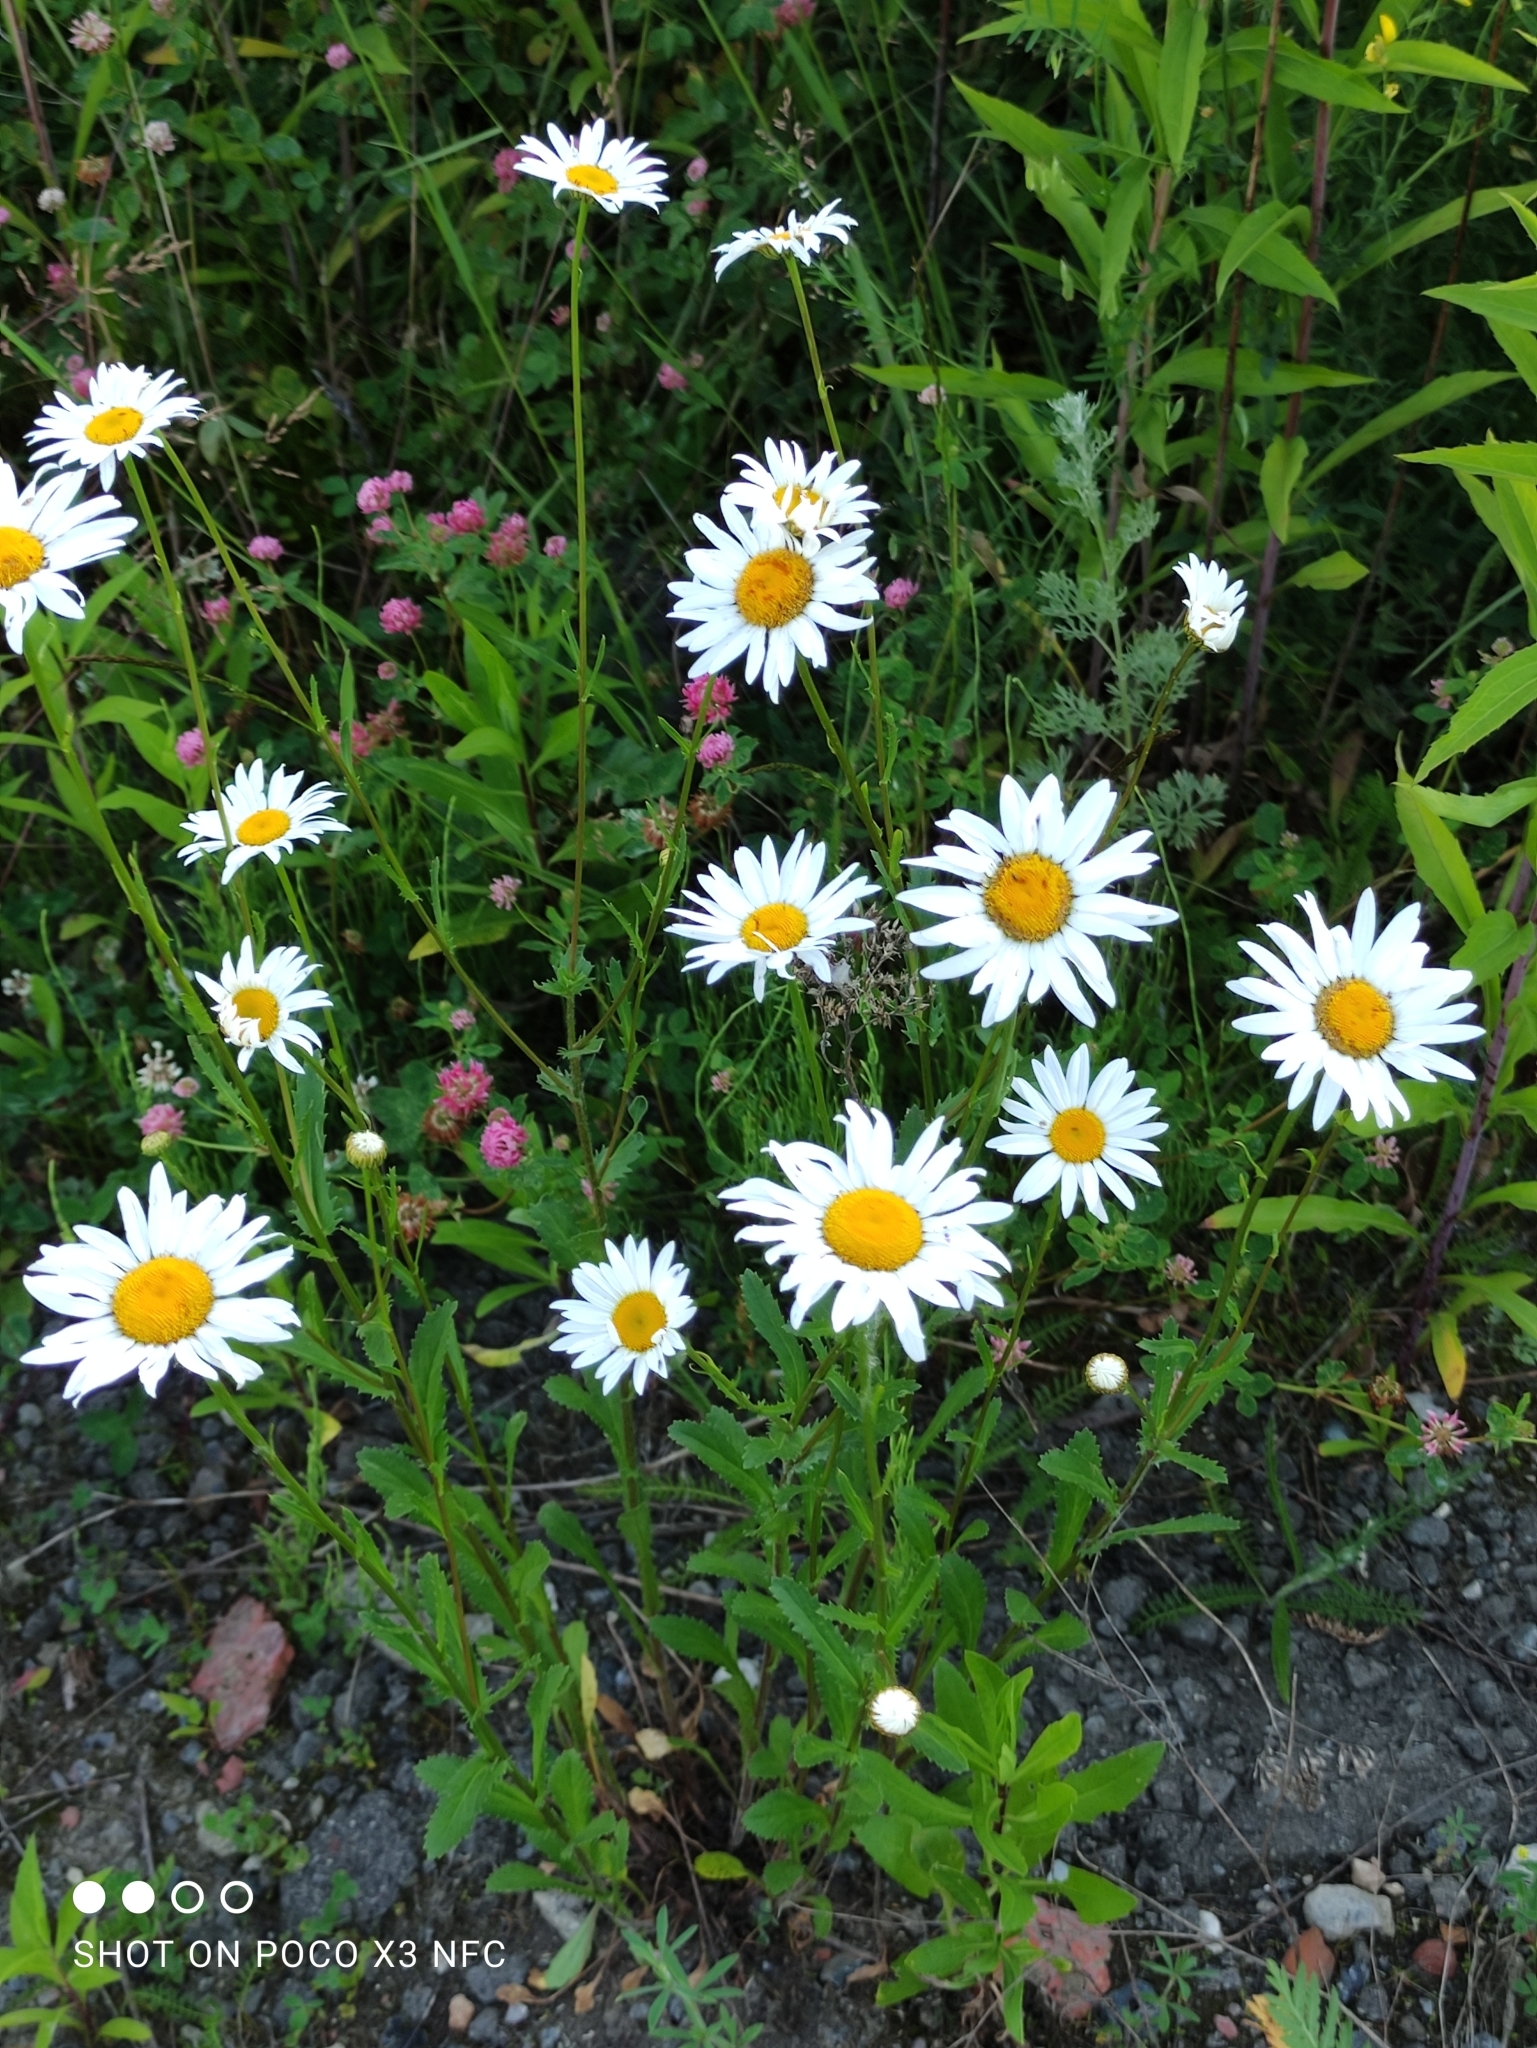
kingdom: Plantae
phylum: Tracheophyta
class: Magnoliopsida
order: Asterales
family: Asteraceae
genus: Leucanthemum
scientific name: Leucanthemum vulgare
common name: Oxeye daisy
